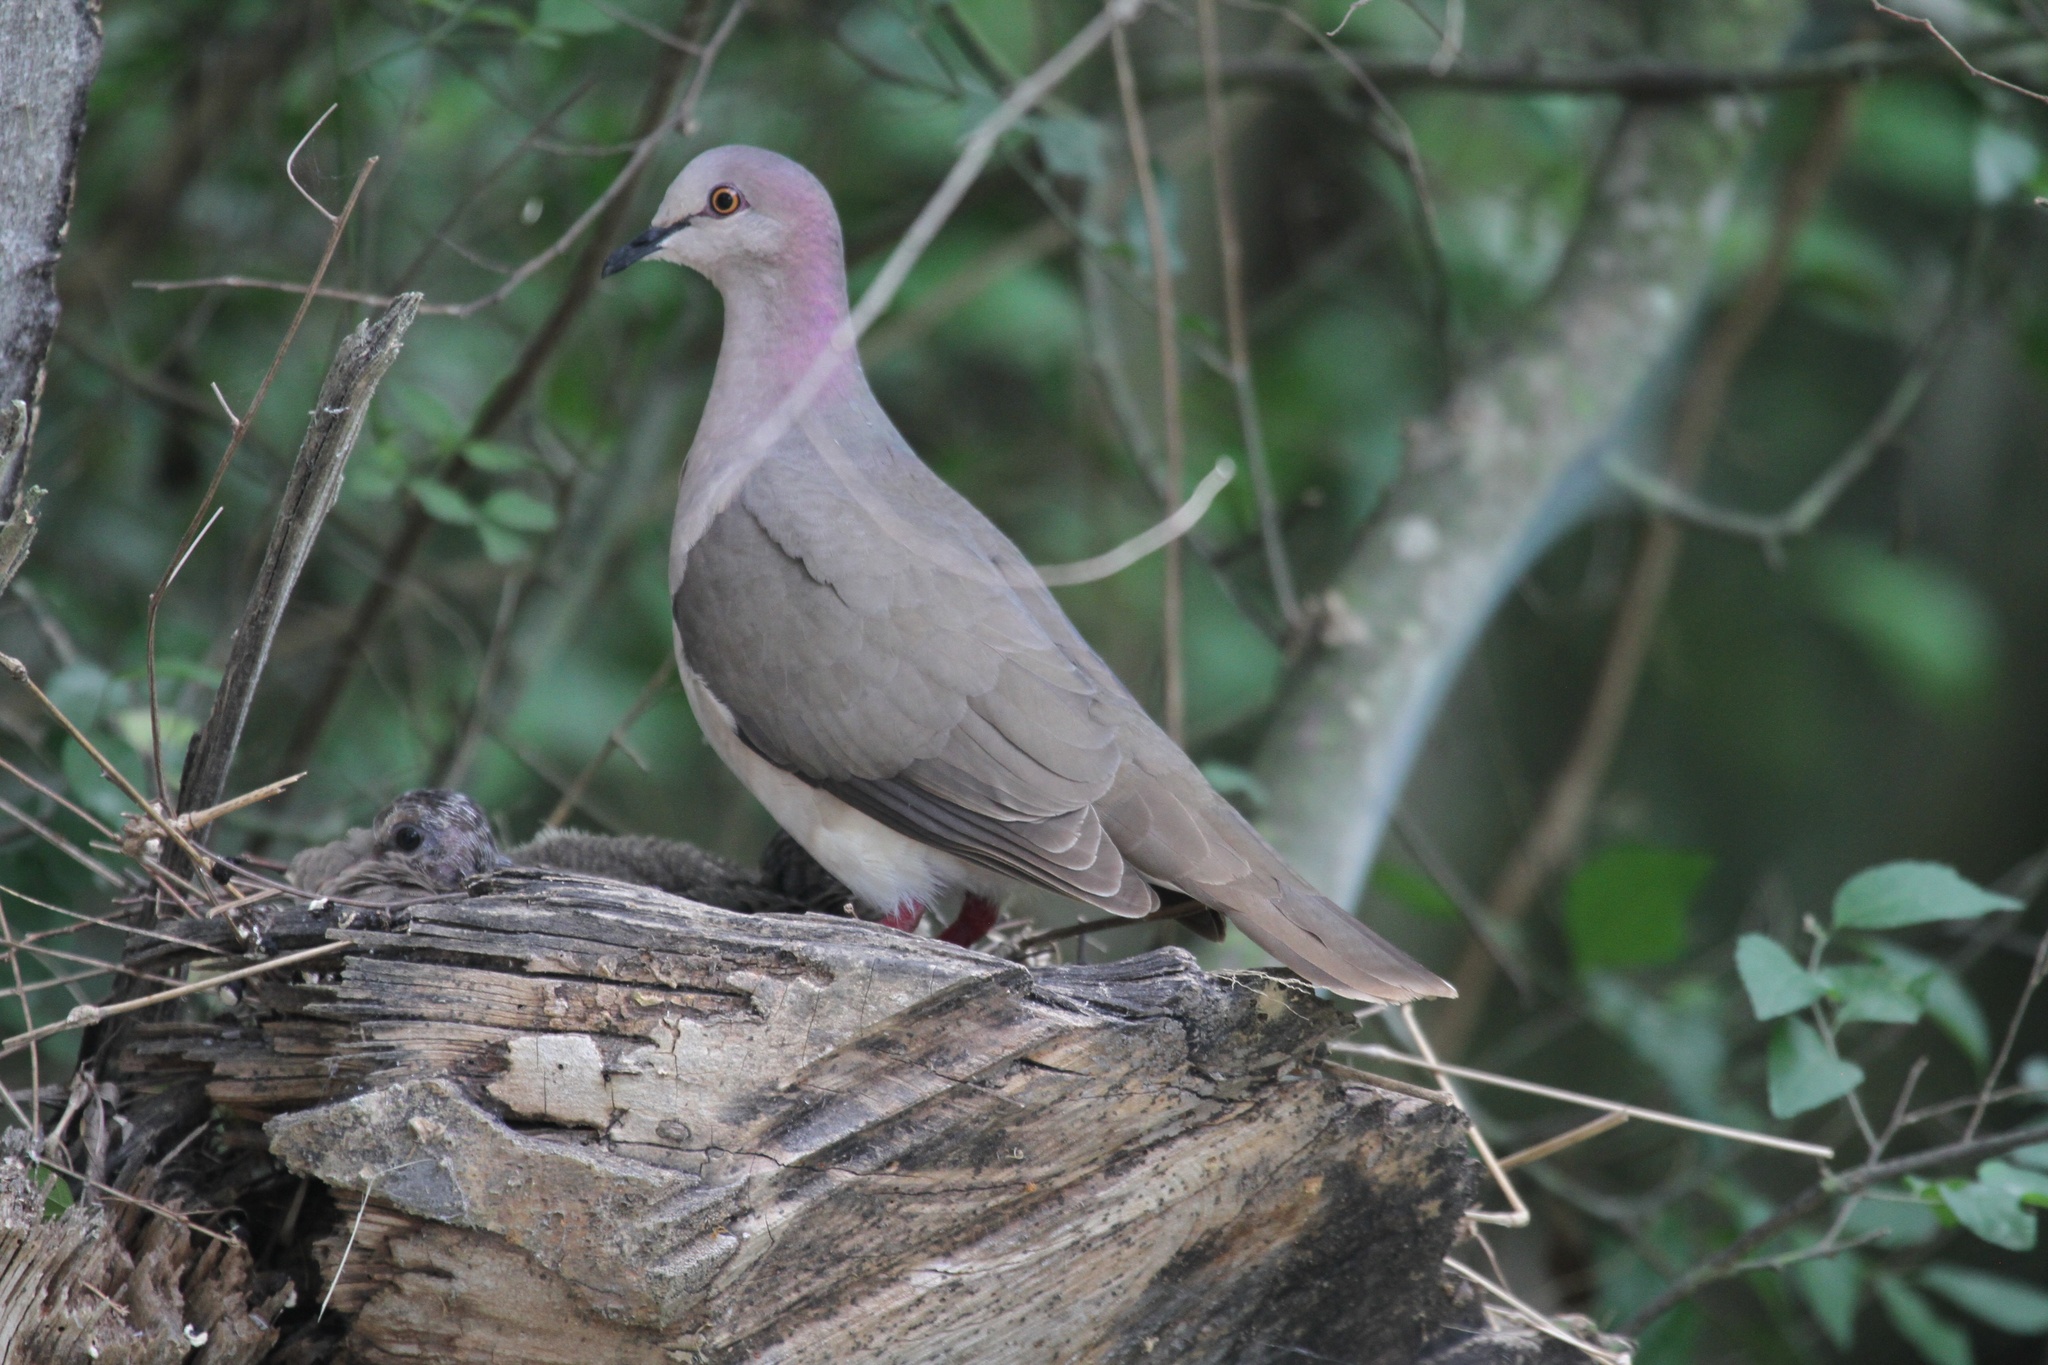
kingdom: Animalia
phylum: Chordata
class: Aves
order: Columbiformes
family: Columbidae
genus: Leptotila
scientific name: Leptotila verreauxi
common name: White-tipped dove
